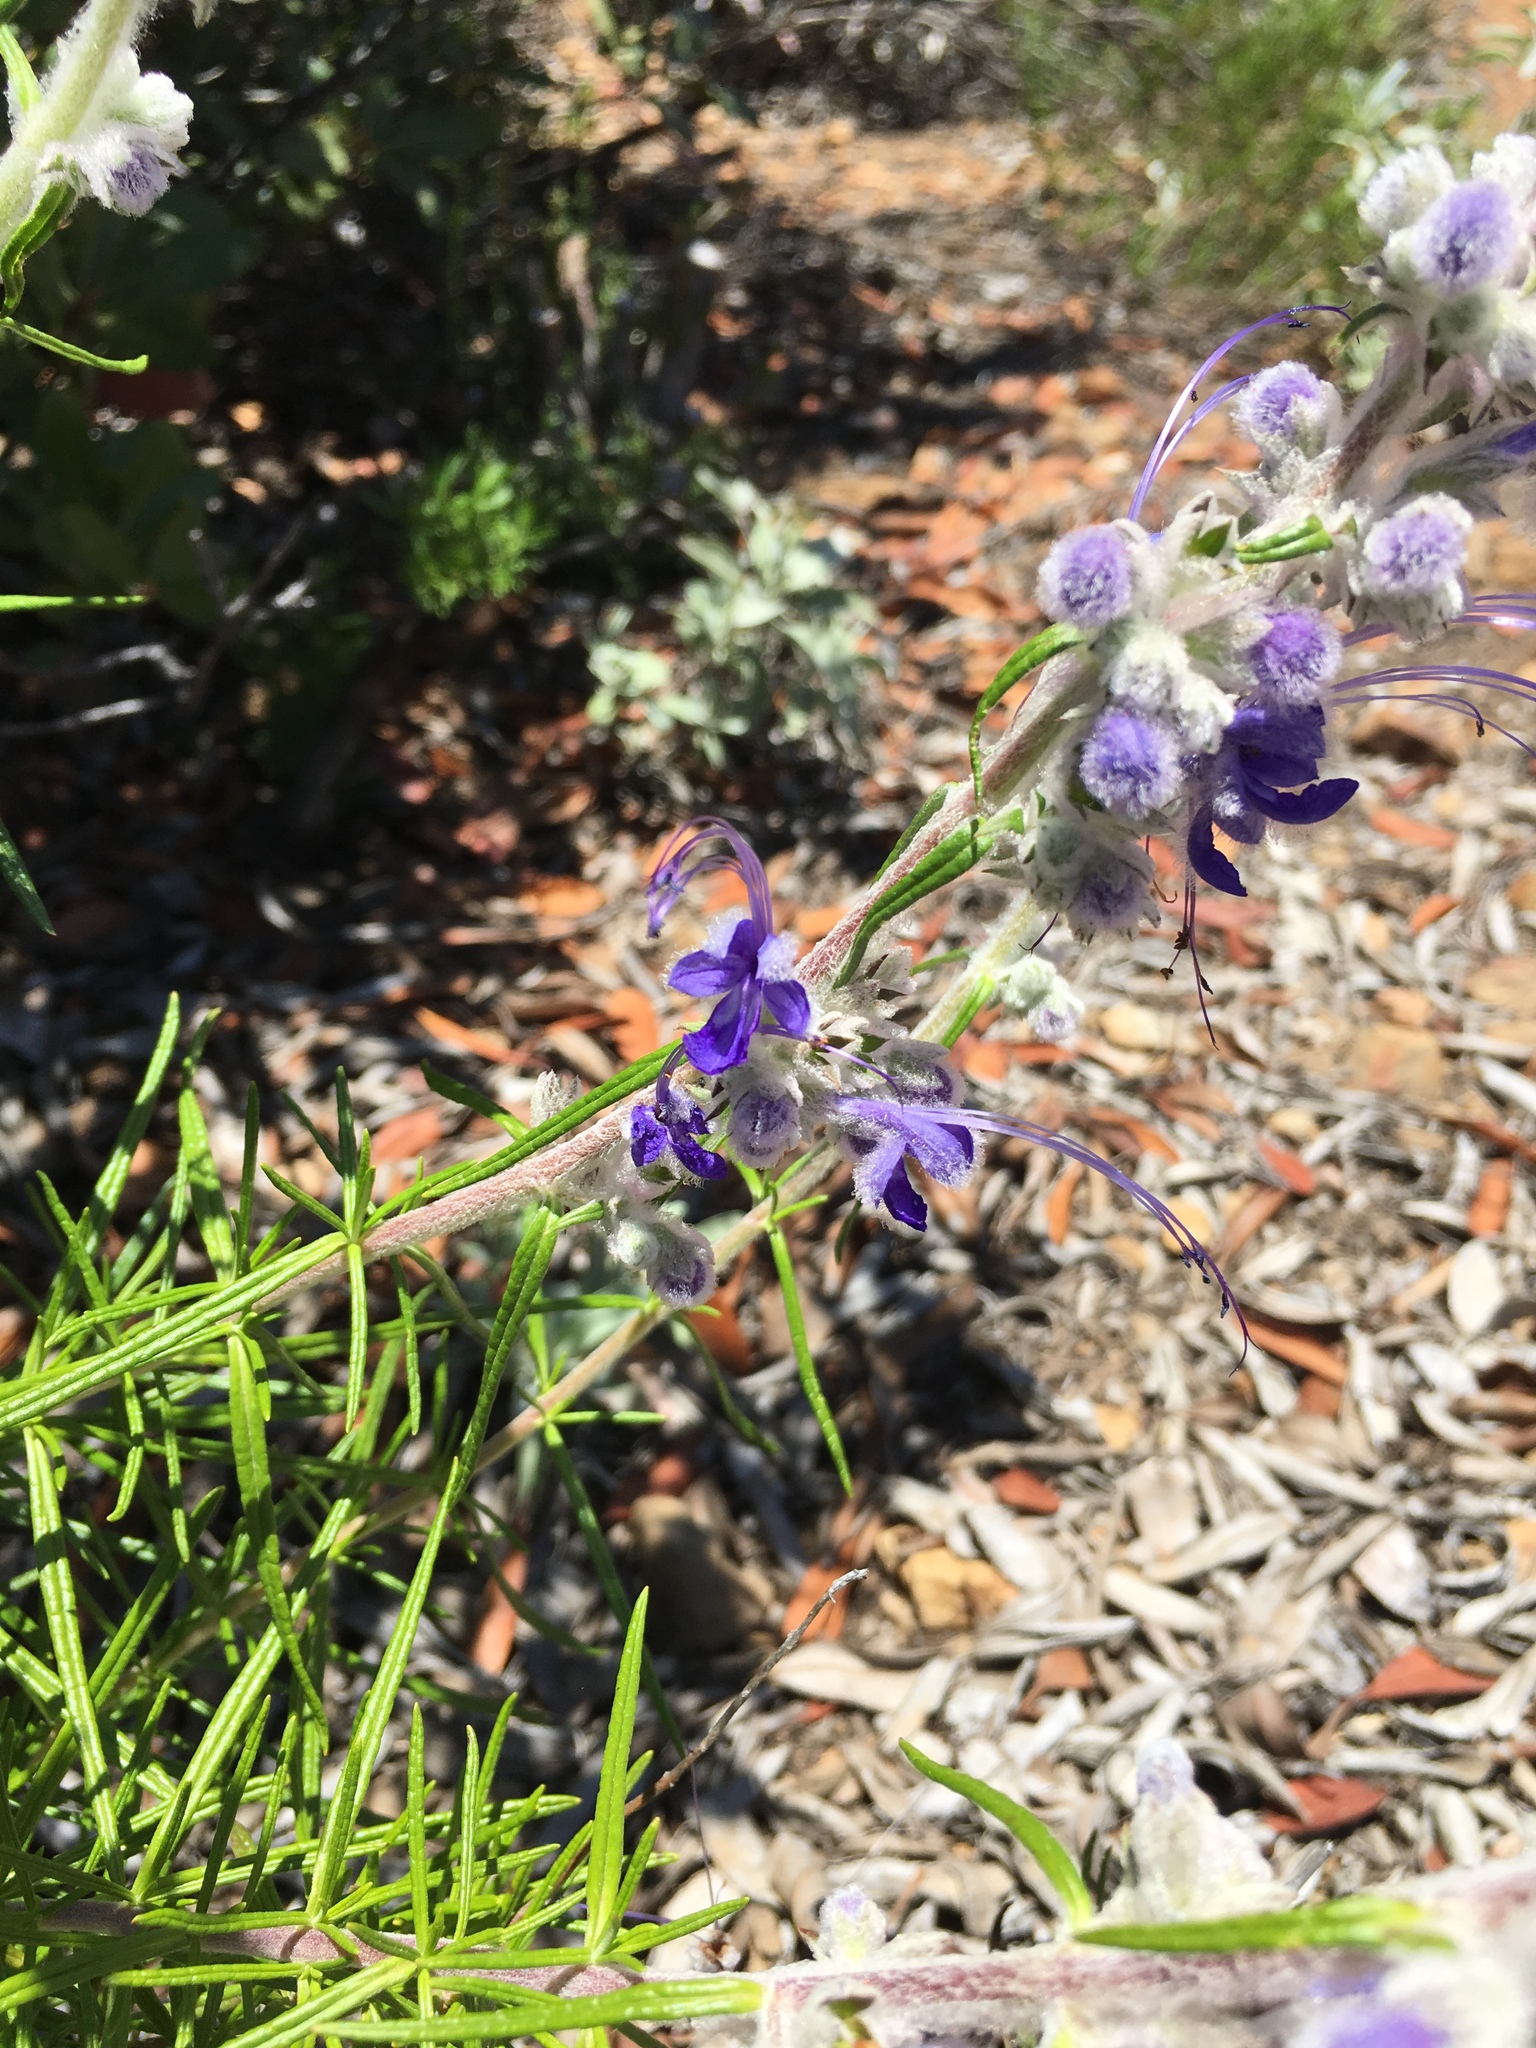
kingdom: Plantae
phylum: Tracheophyta
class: Magnoliopsida
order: Lamiales
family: Lamiaceae
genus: Trichostema
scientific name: Trichostema lanatum
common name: Woolly bluecurls
